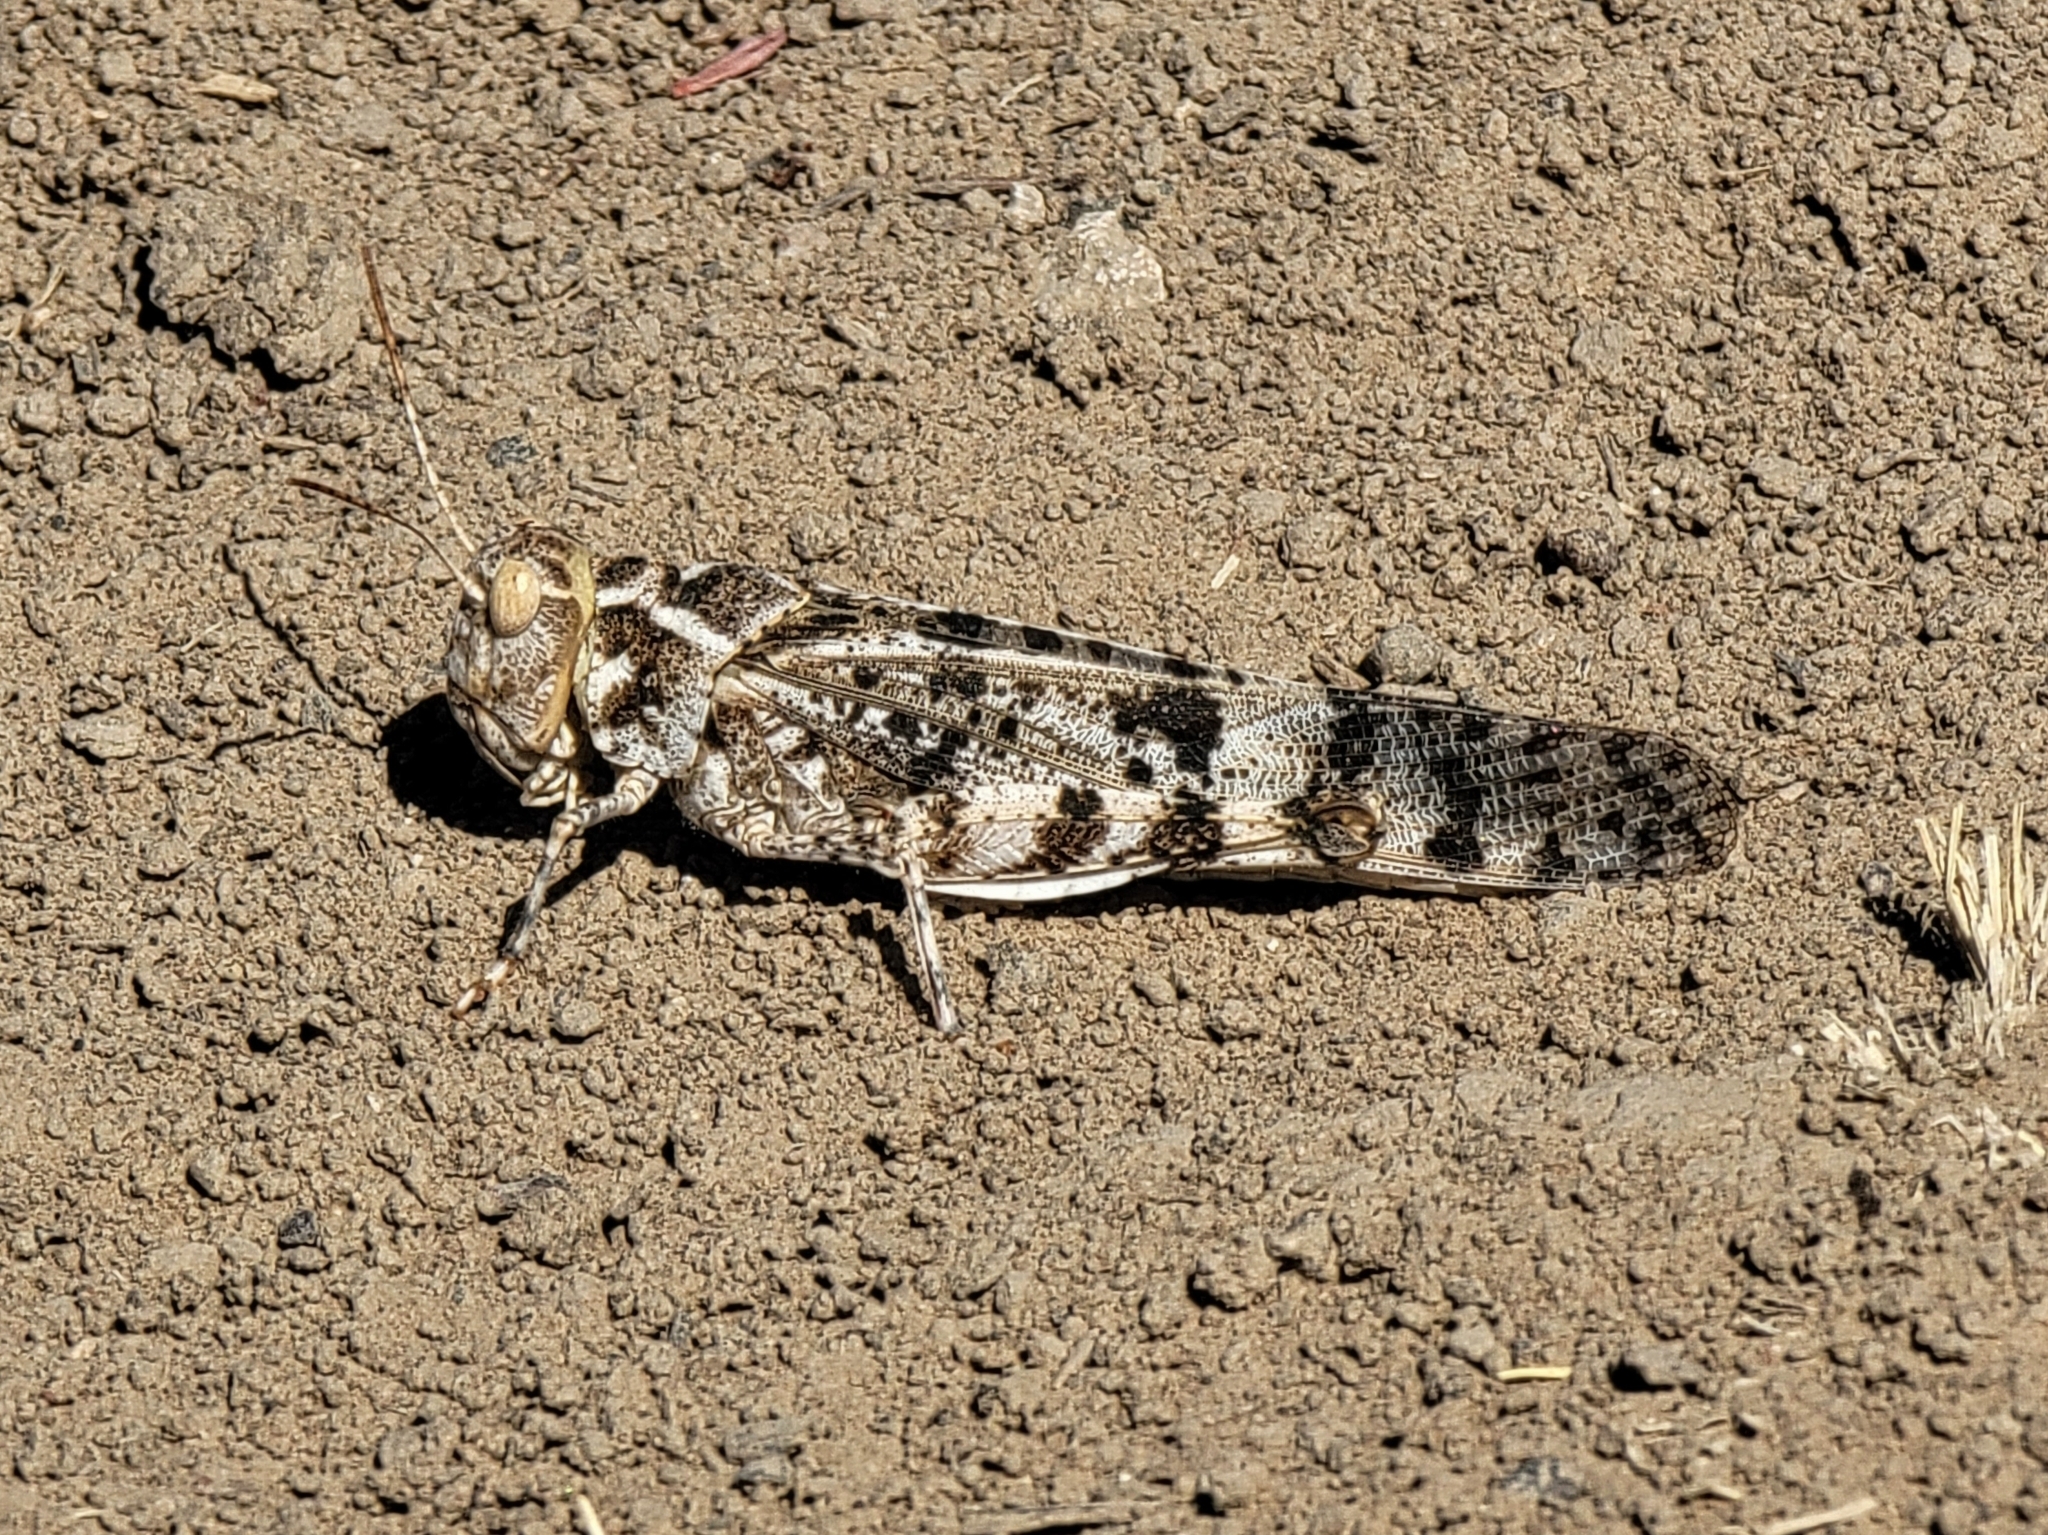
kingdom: Animalia
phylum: Arthropoda
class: Insecta
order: Orthoptera
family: Acrididae
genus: Dissosteira
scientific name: Dissosteira spurcata
